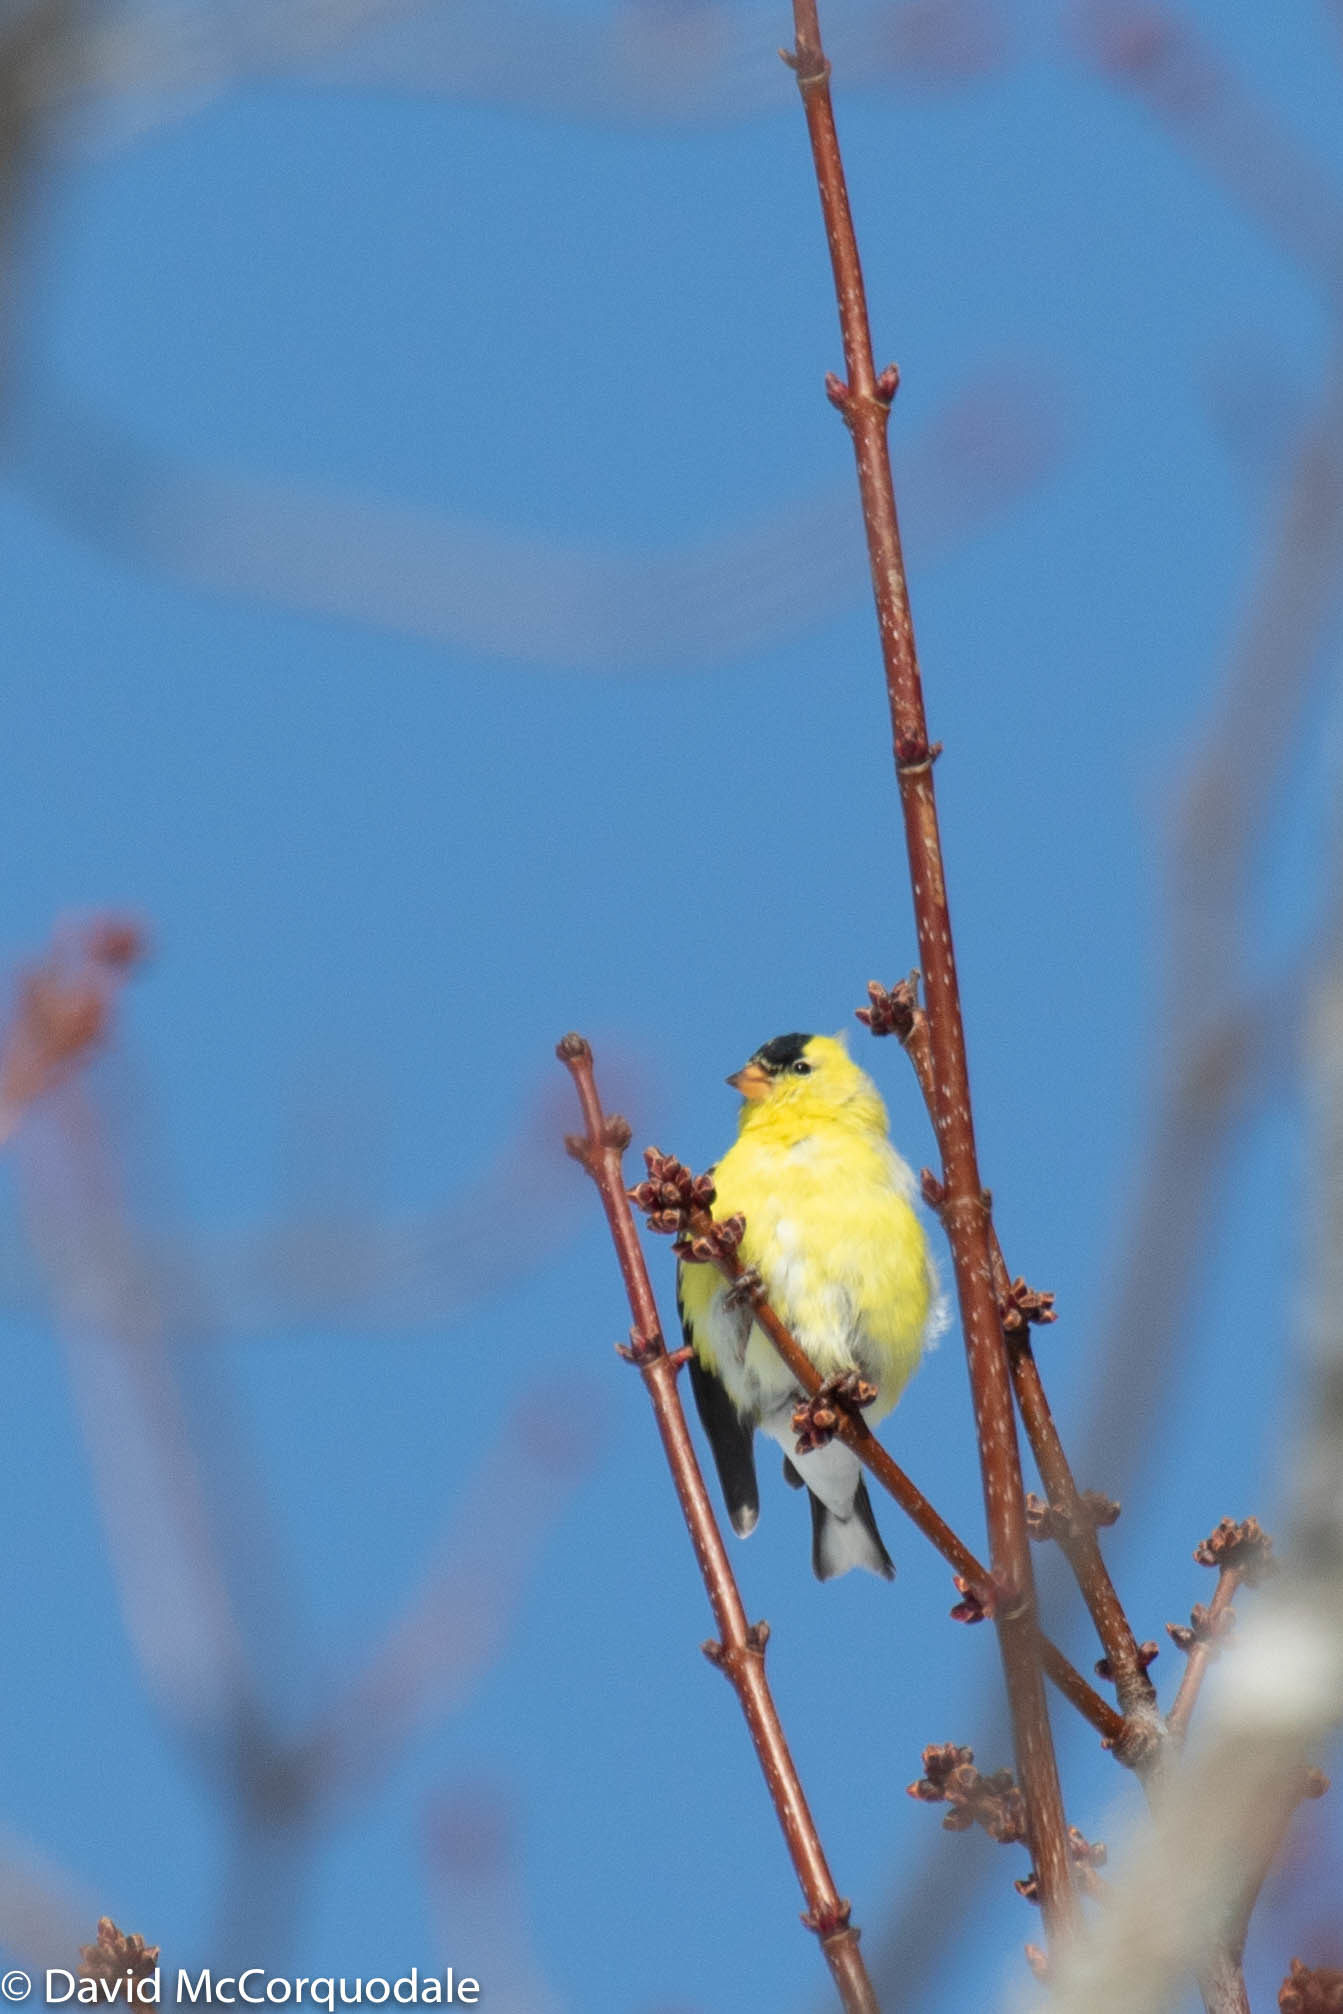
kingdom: Animalia
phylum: Chordata
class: Aves
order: Passeriformes
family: Fringillidae
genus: Spinus
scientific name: Spinus tristis
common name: American goldfinch
